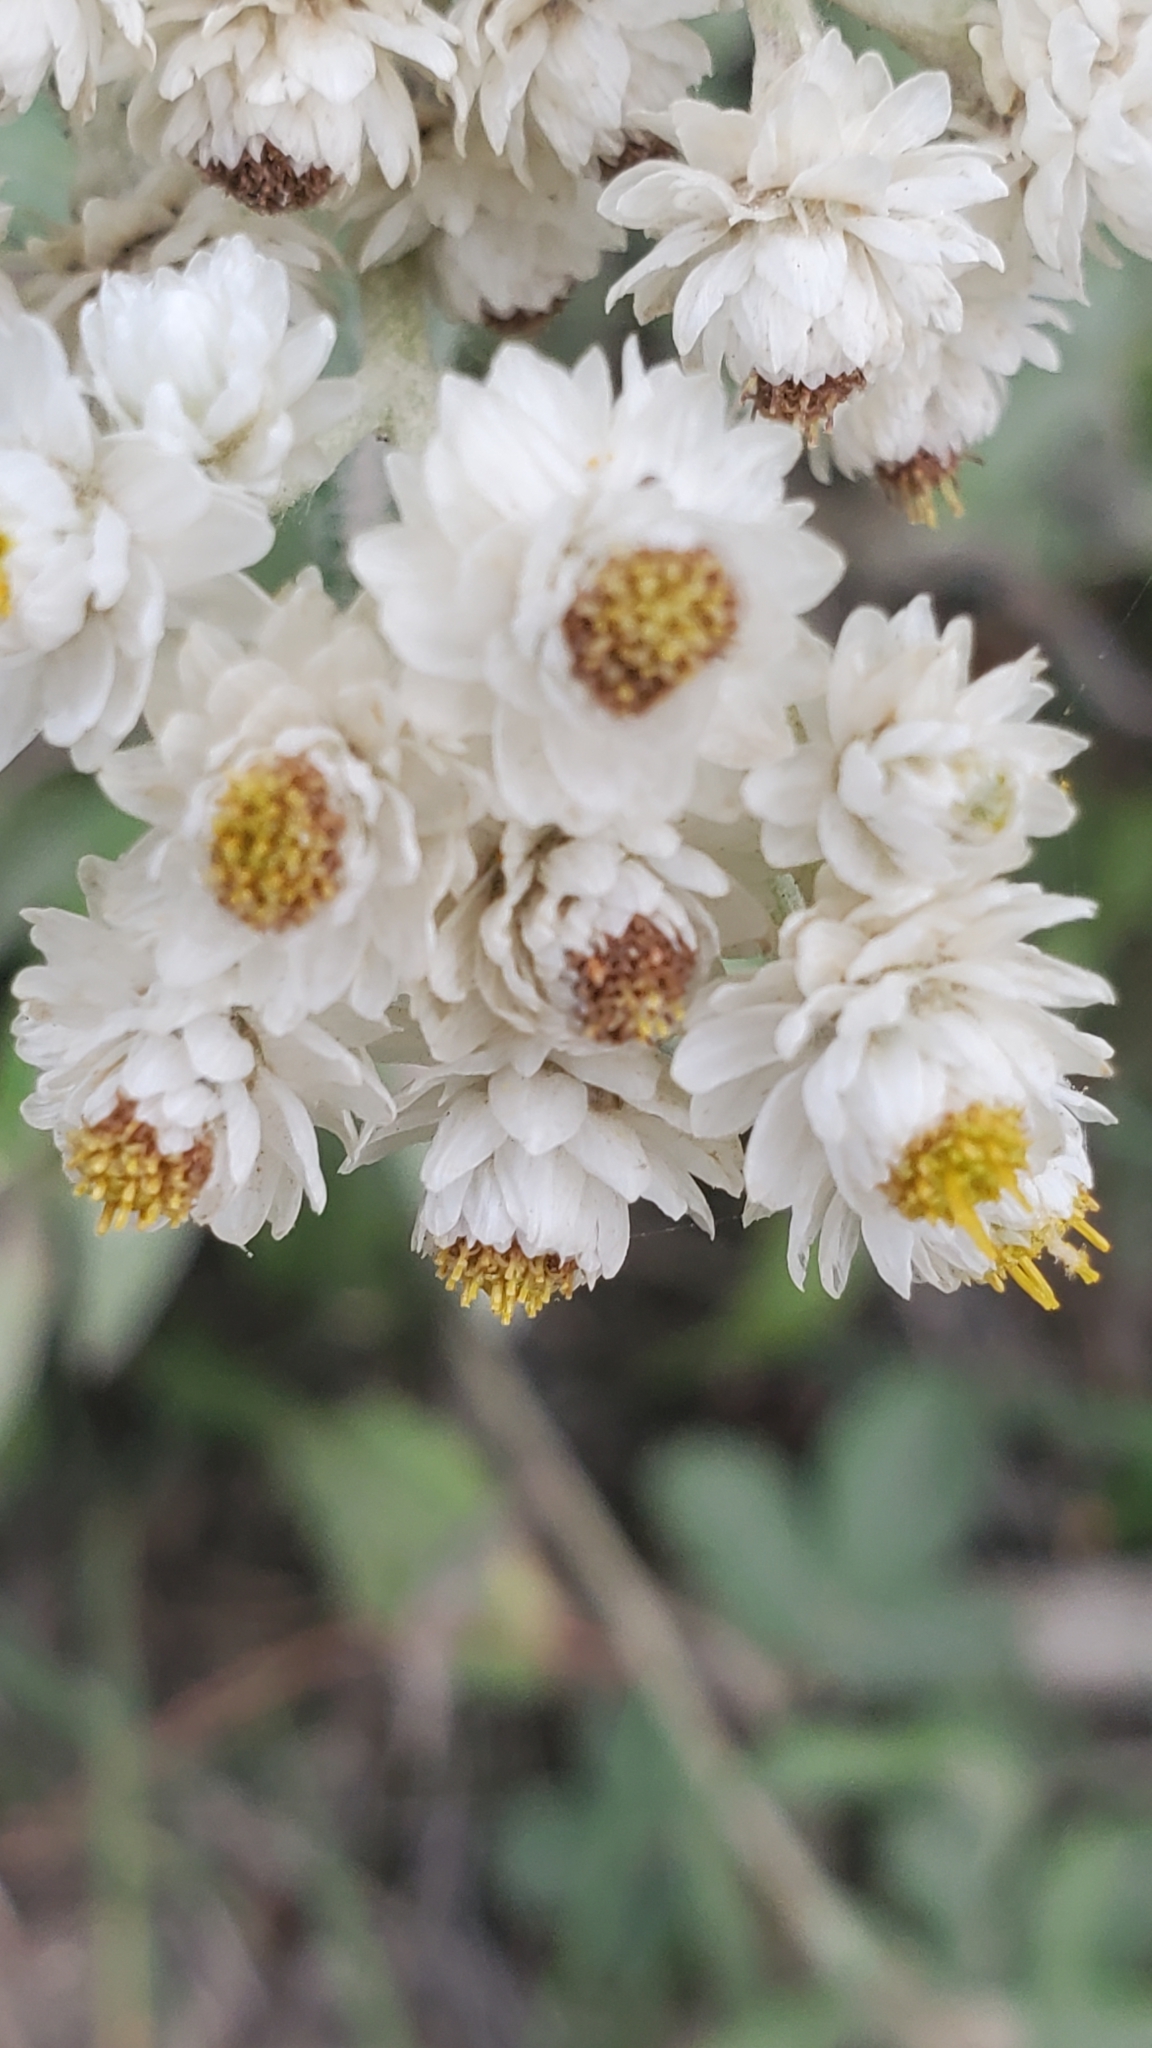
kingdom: Plantae
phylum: Tracheophyta
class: Magnoliopsida
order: Asterales
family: Asteraceae
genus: Anaphalis
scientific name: Anaphalis margaritacea
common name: Pearly everlasting
